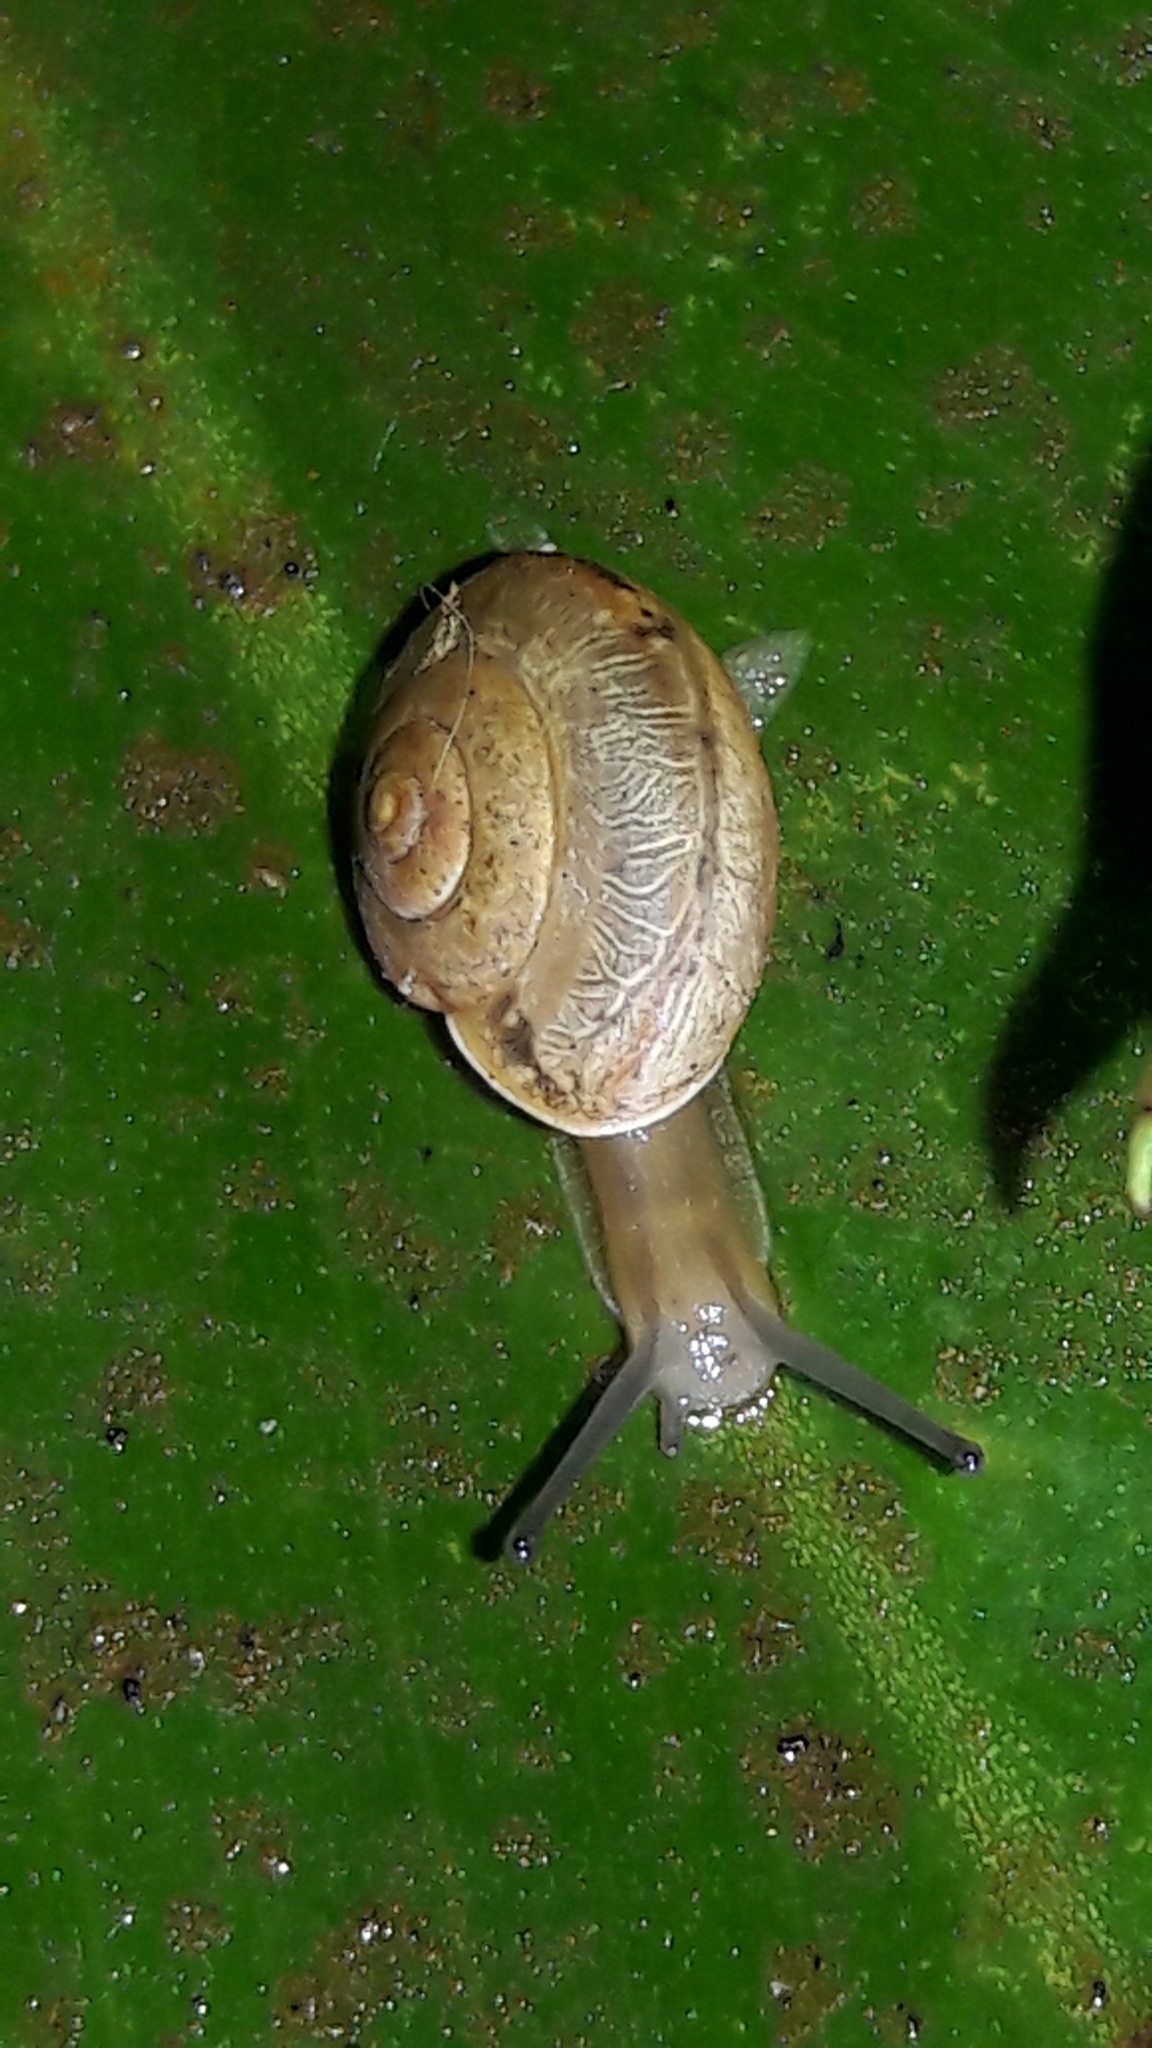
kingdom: Animalia
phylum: Mollusca
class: Gastropoda
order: Stylommatophora
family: Camaenidae
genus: Bradybaena
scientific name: Bradybaena similaris
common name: Asian trampsnail
